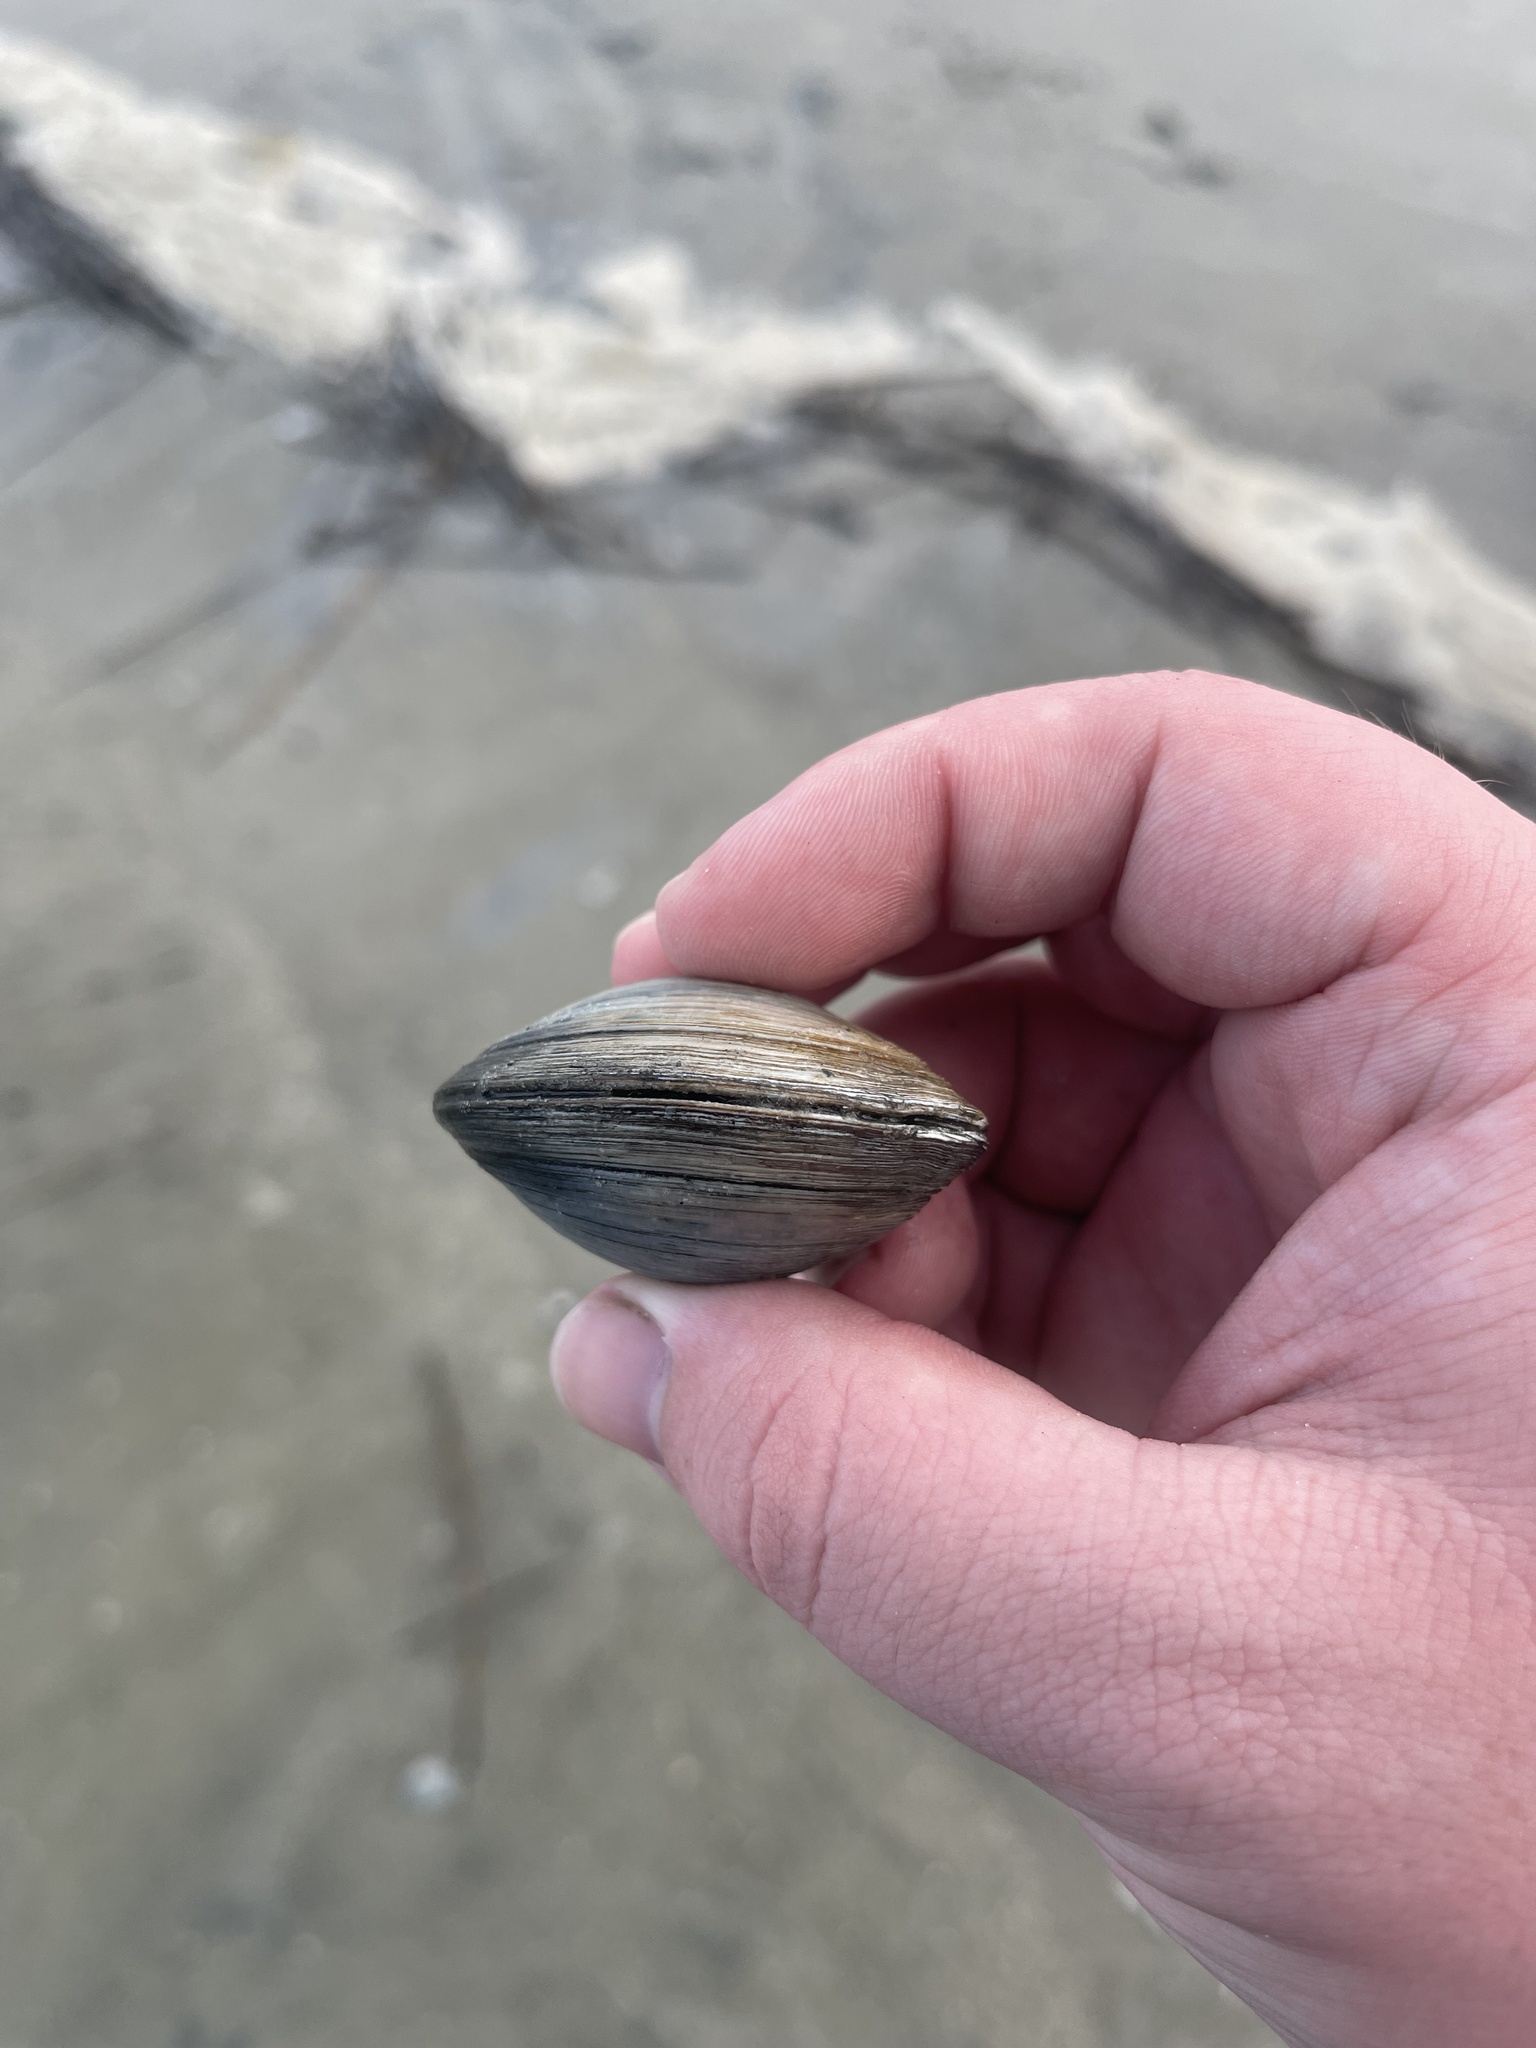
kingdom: Animalia
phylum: Mollusca
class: Bivalvia
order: Venerida
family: Veneridae
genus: Mercenaria
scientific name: Mercenaria campechiensis
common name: Südliche quahog-muschel
